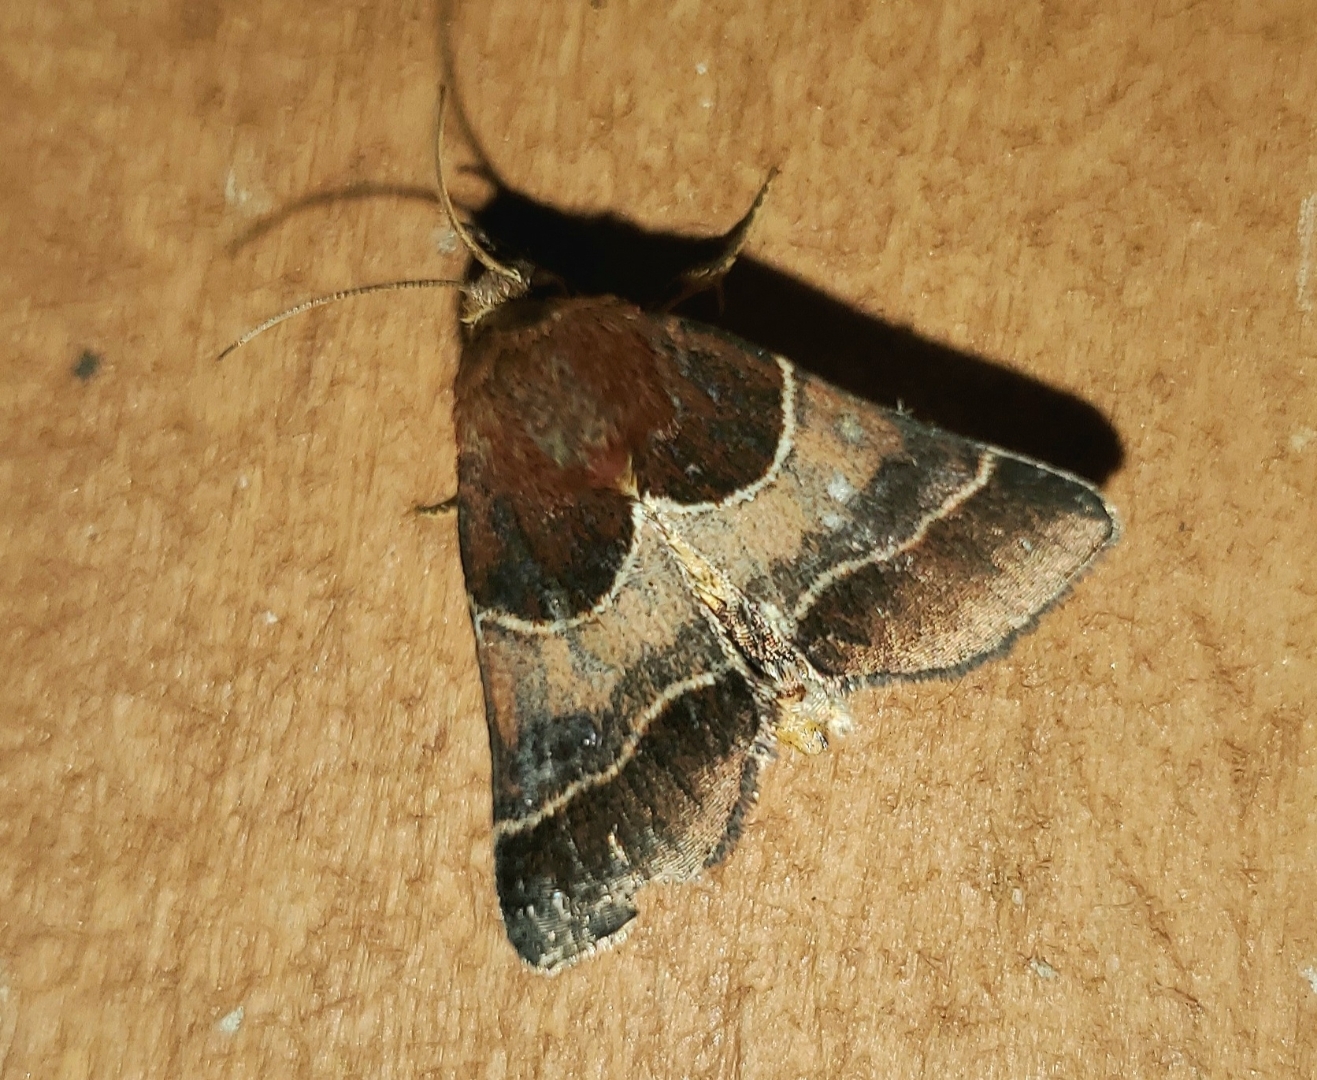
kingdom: Animalia
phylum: Arthropoda
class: Insecta
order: Lepidoptera
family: Noctuidae
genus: Schinia
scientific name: Schinia arcigera
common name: Arcigera flower moth
